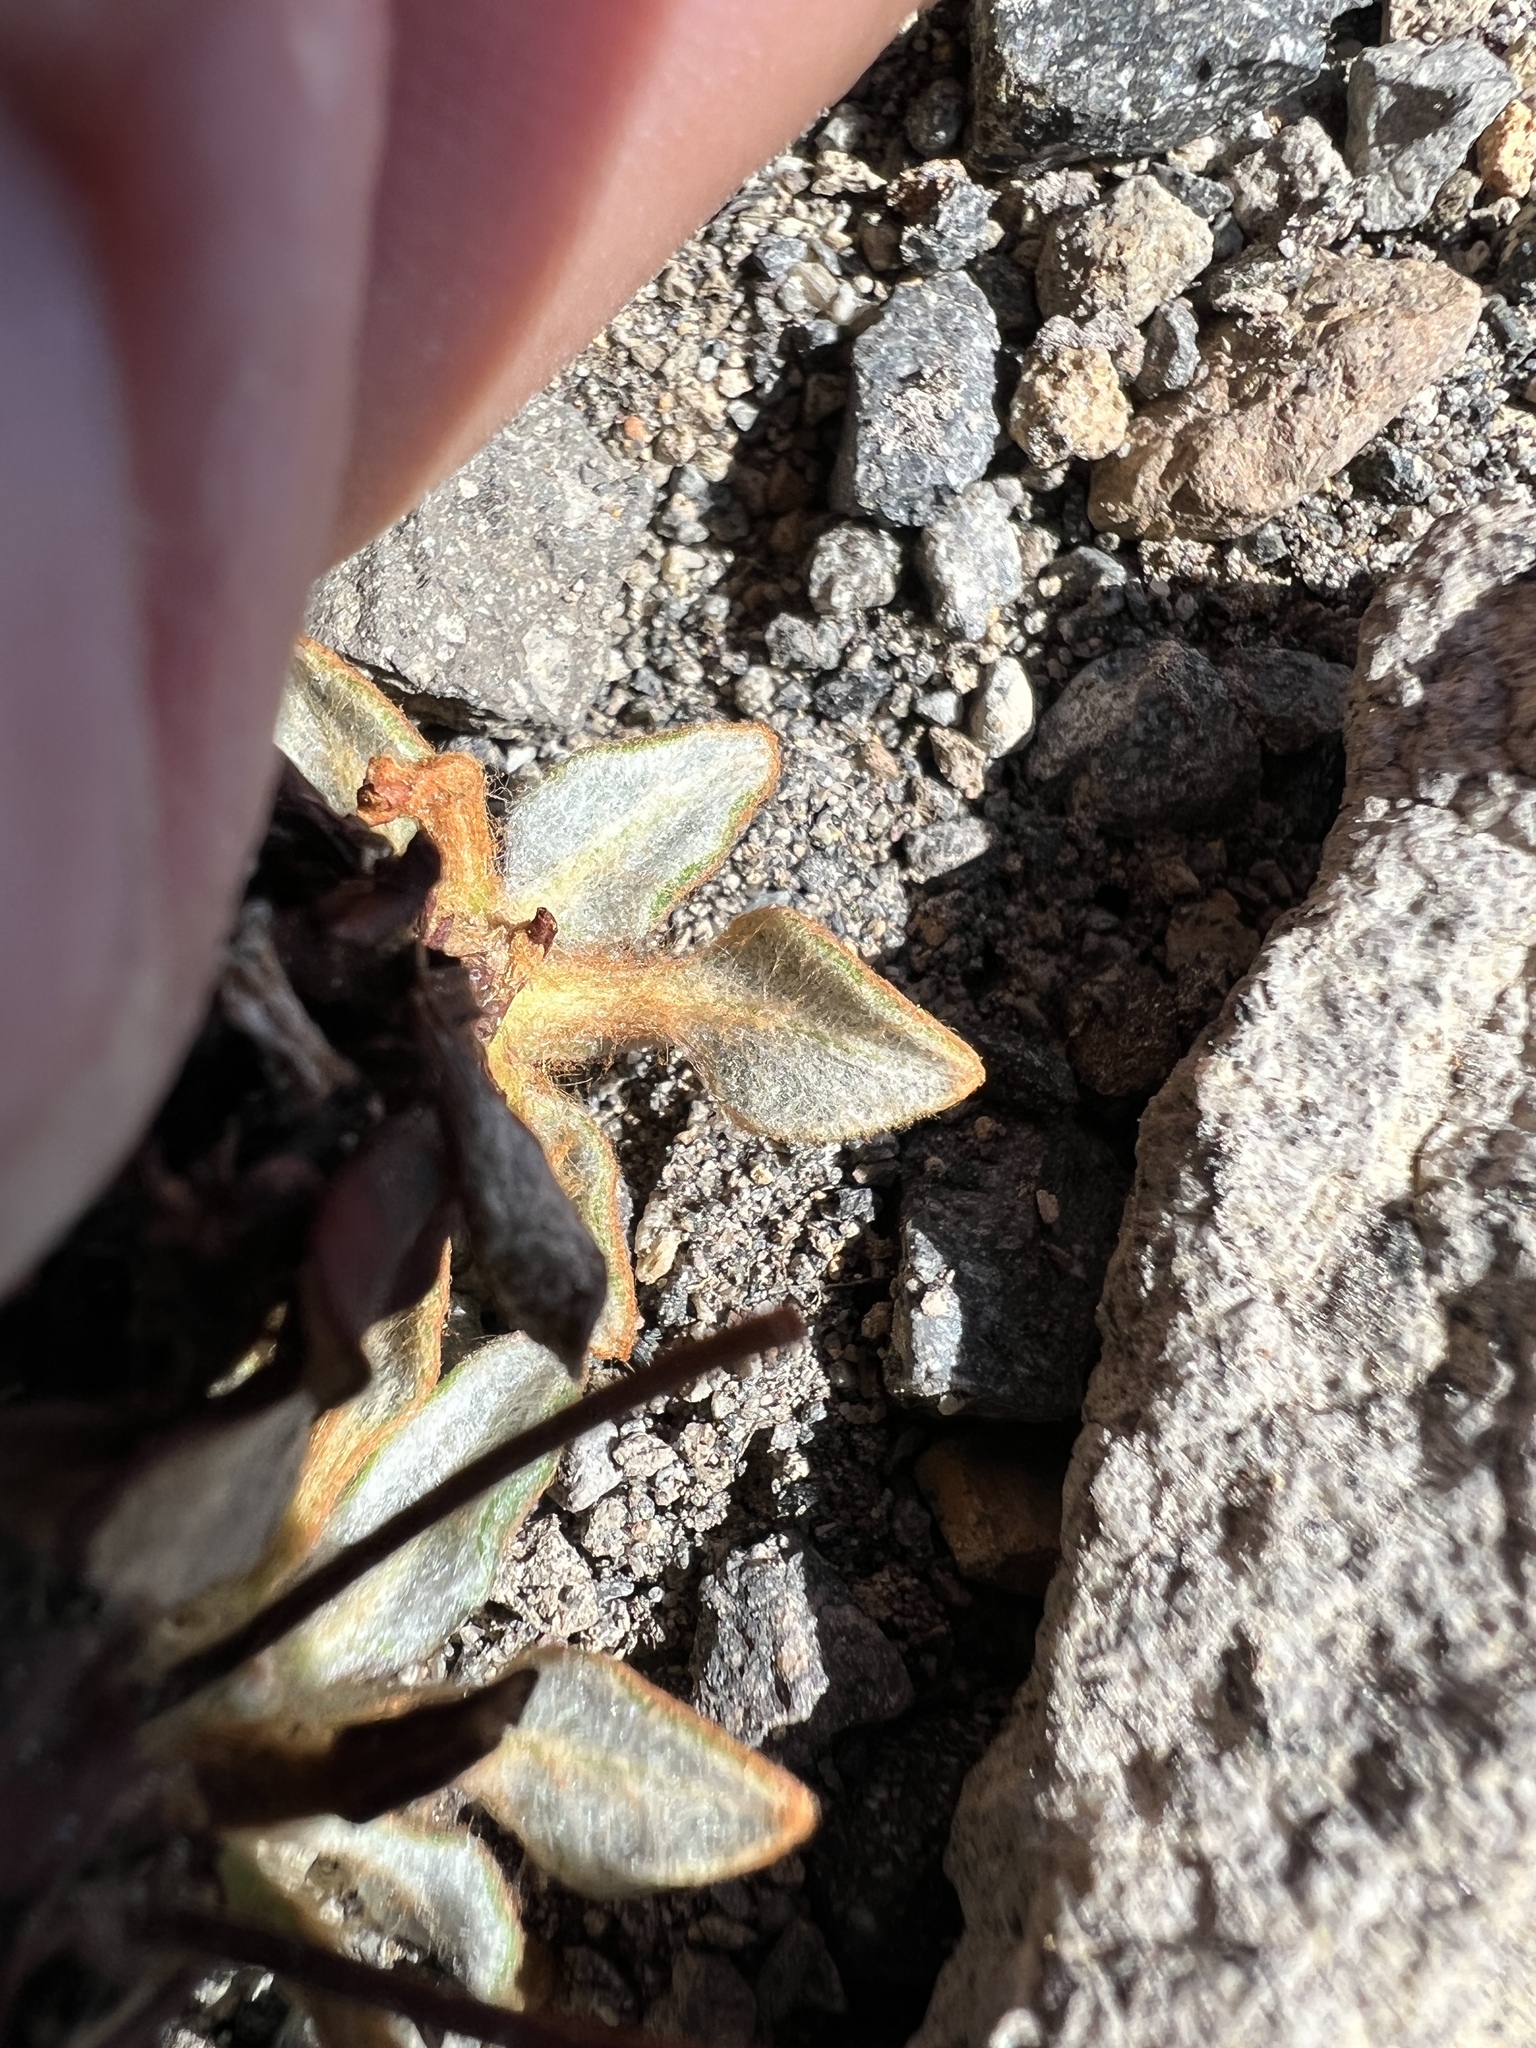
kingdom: Plantae
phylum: Tracheophyta
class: Magnoliopsida
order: Caryophyllales
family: Polygonaceae
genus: Eriogonum
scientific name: Eriogonum pyrolifolium
